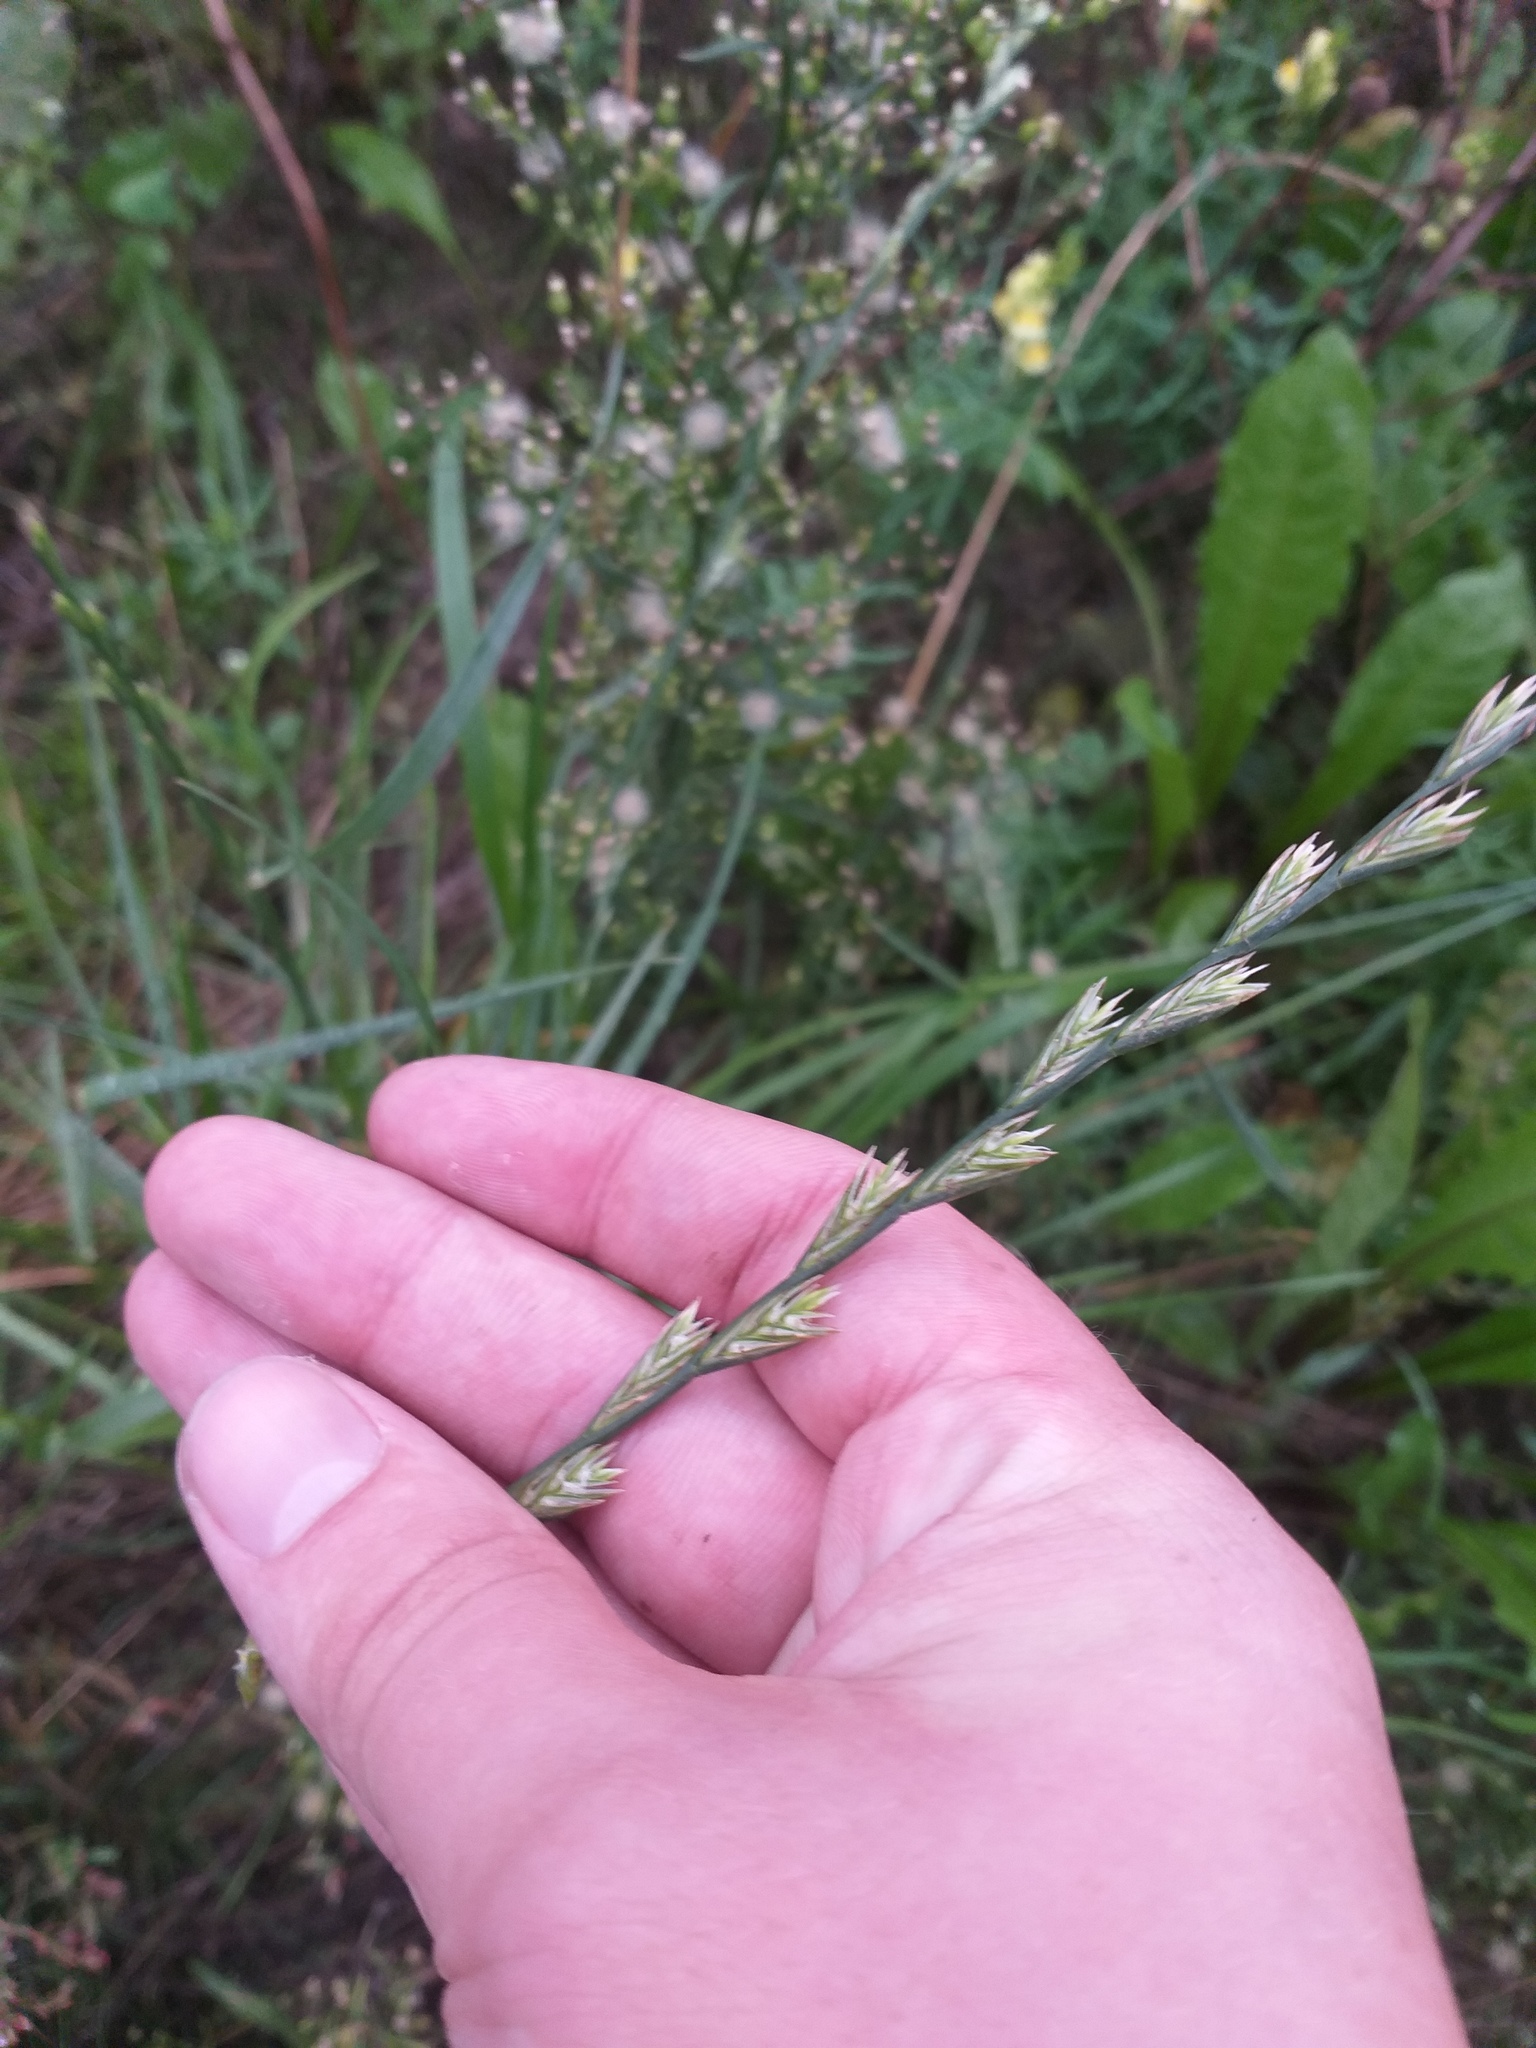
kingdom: Plantae
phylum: Tracheophyta
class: Liliopsida
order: Poales
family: Poaceae
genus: Lolium
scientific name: Lolium perenne
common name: Perennial ryegrass
